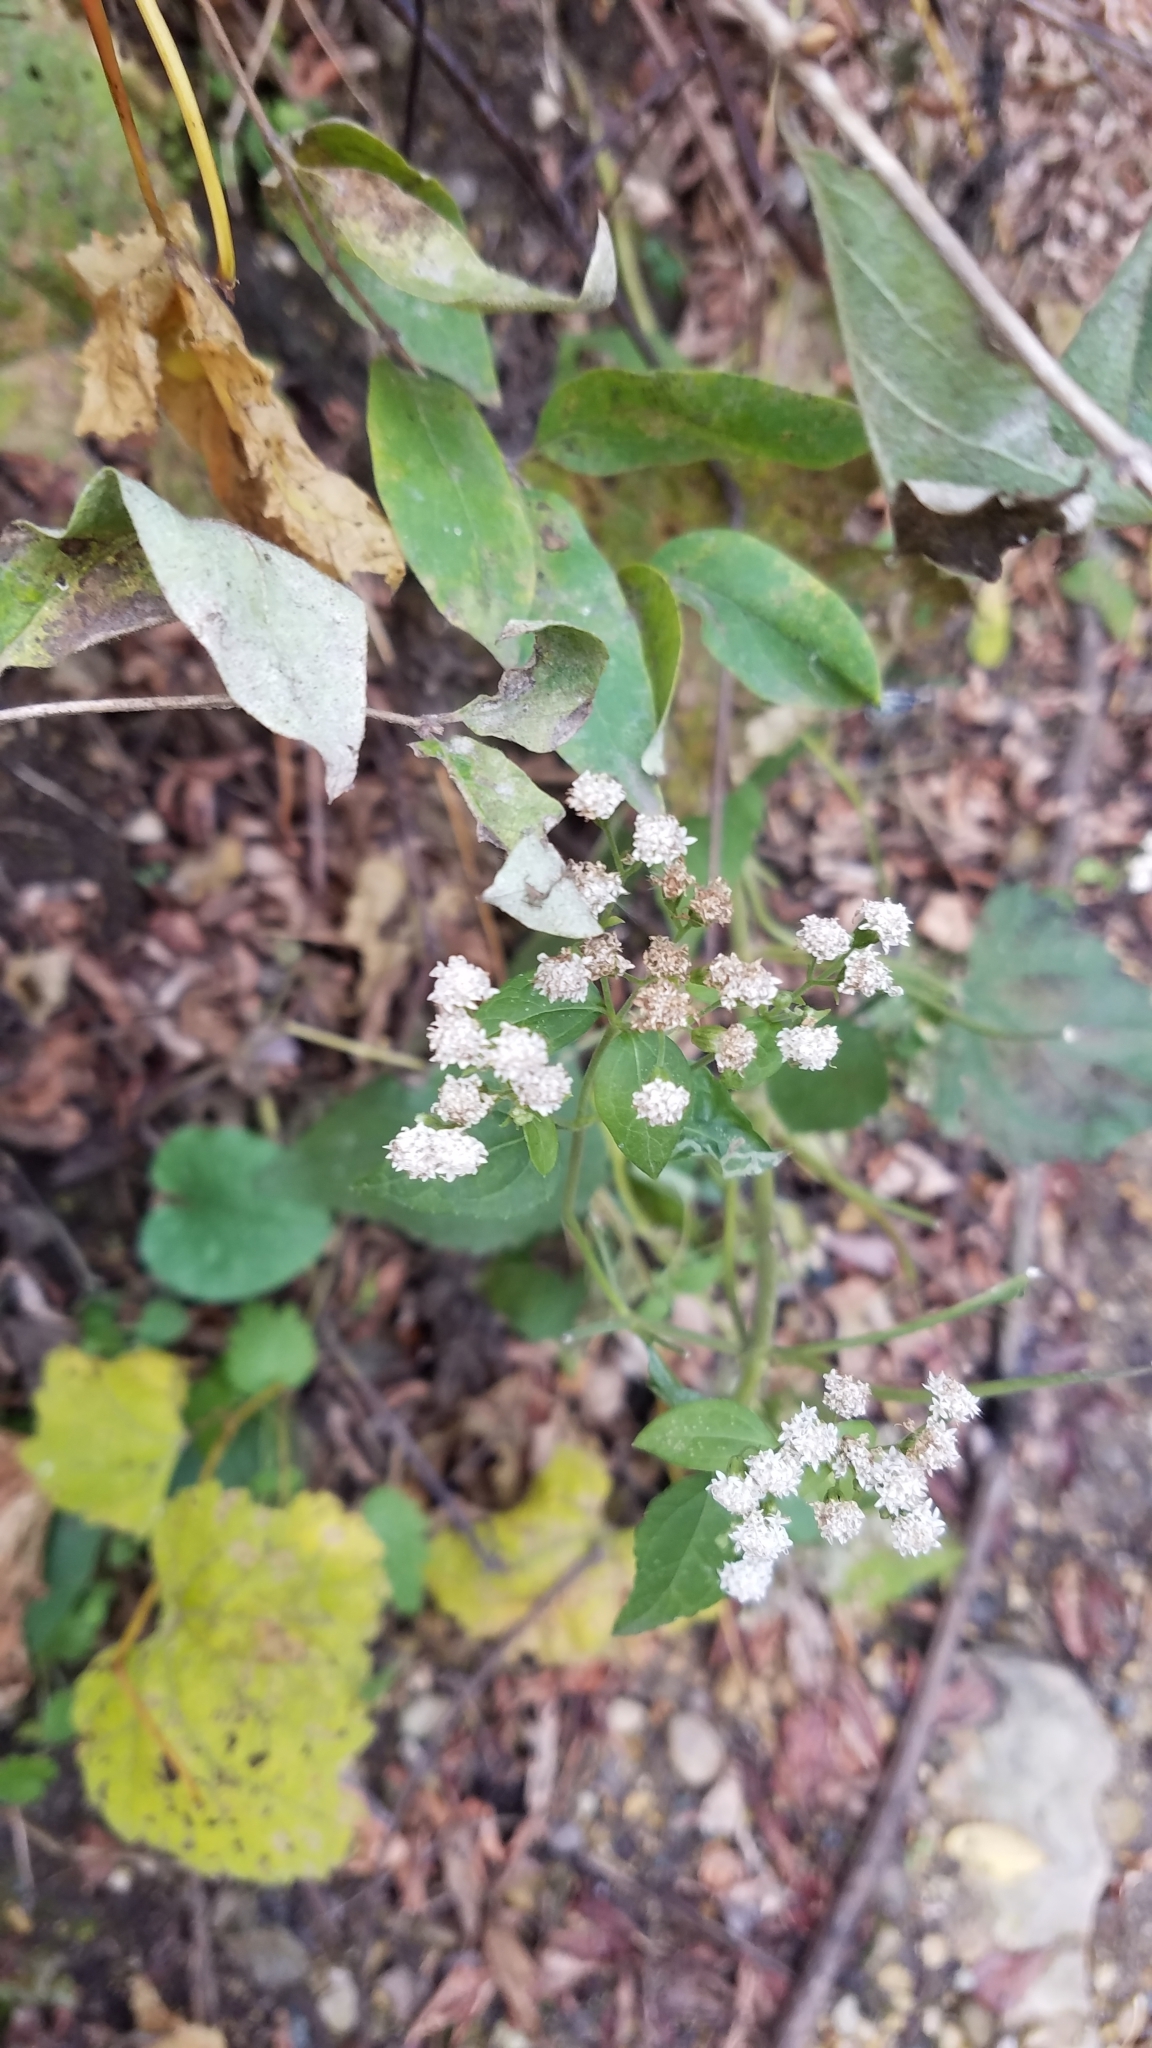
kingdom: Plantae
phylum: Tracheophyta
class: Magnoliopsida
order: Asterales
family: Asteraceae
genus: Ageratina
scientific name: Ageratina altissima
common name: White snakeroot
